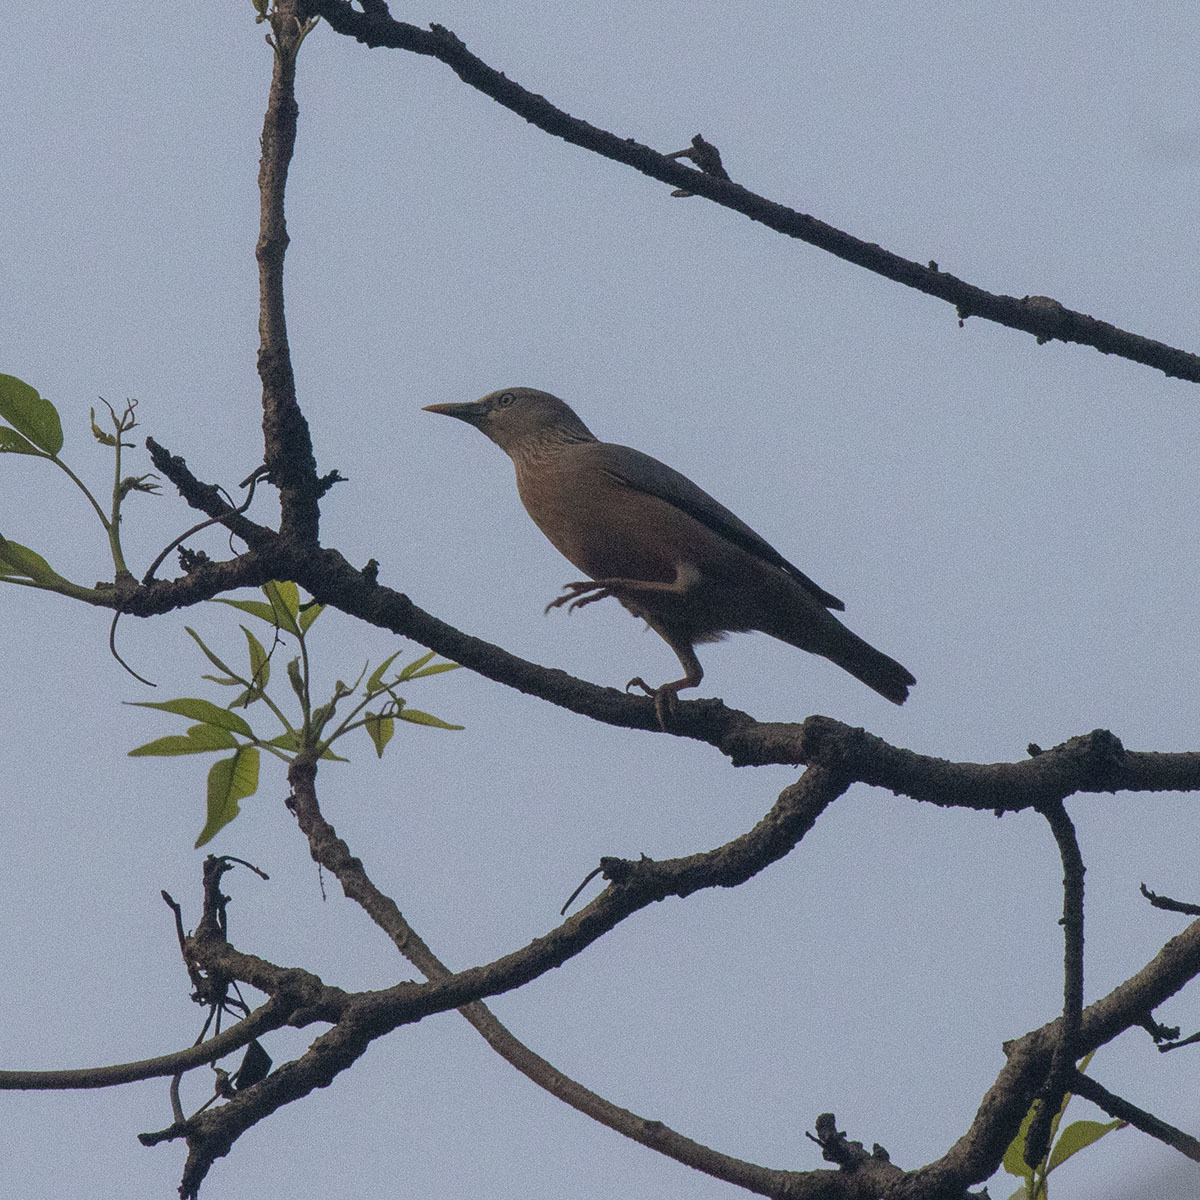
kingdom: Animalia
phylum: Chordata
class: Aves
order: Passeriformes
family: Sturnidae
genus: Sturnia
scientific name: Sturnia malabarica
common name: Chestnut-tailed starling
